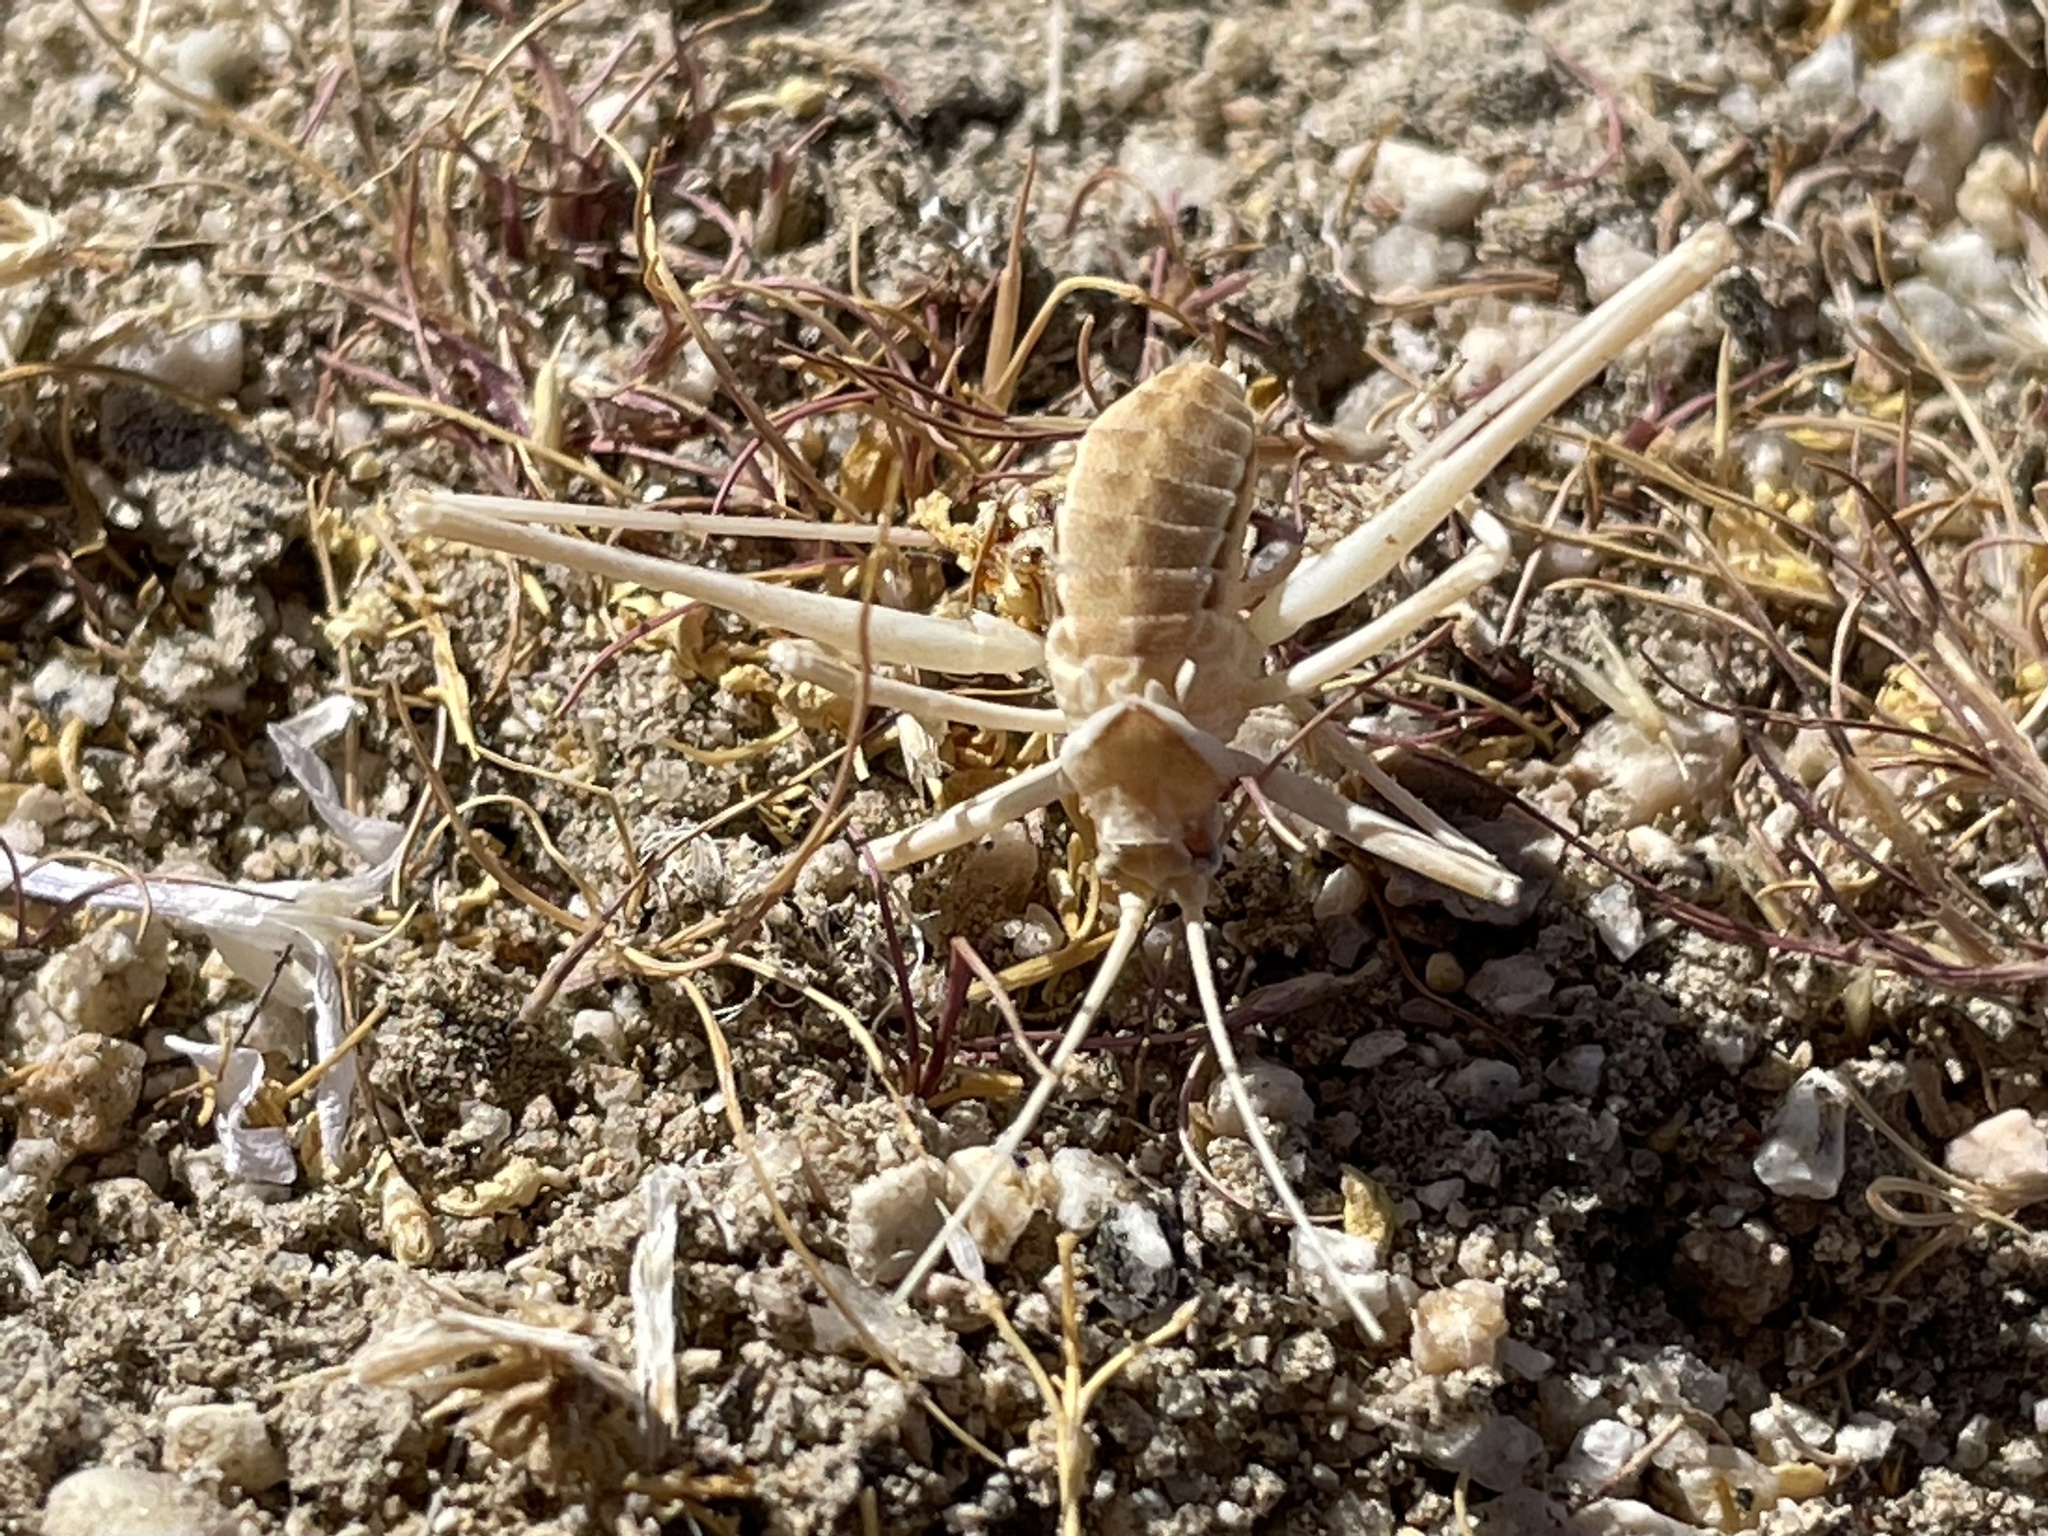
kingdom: Animalia
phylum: Arthropoda
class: Insecta
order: Orthoptera
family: Tettigoniidae
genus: Arethaea
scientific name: Arethaea brevicauda
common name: Short-tail thread-legged katydid
